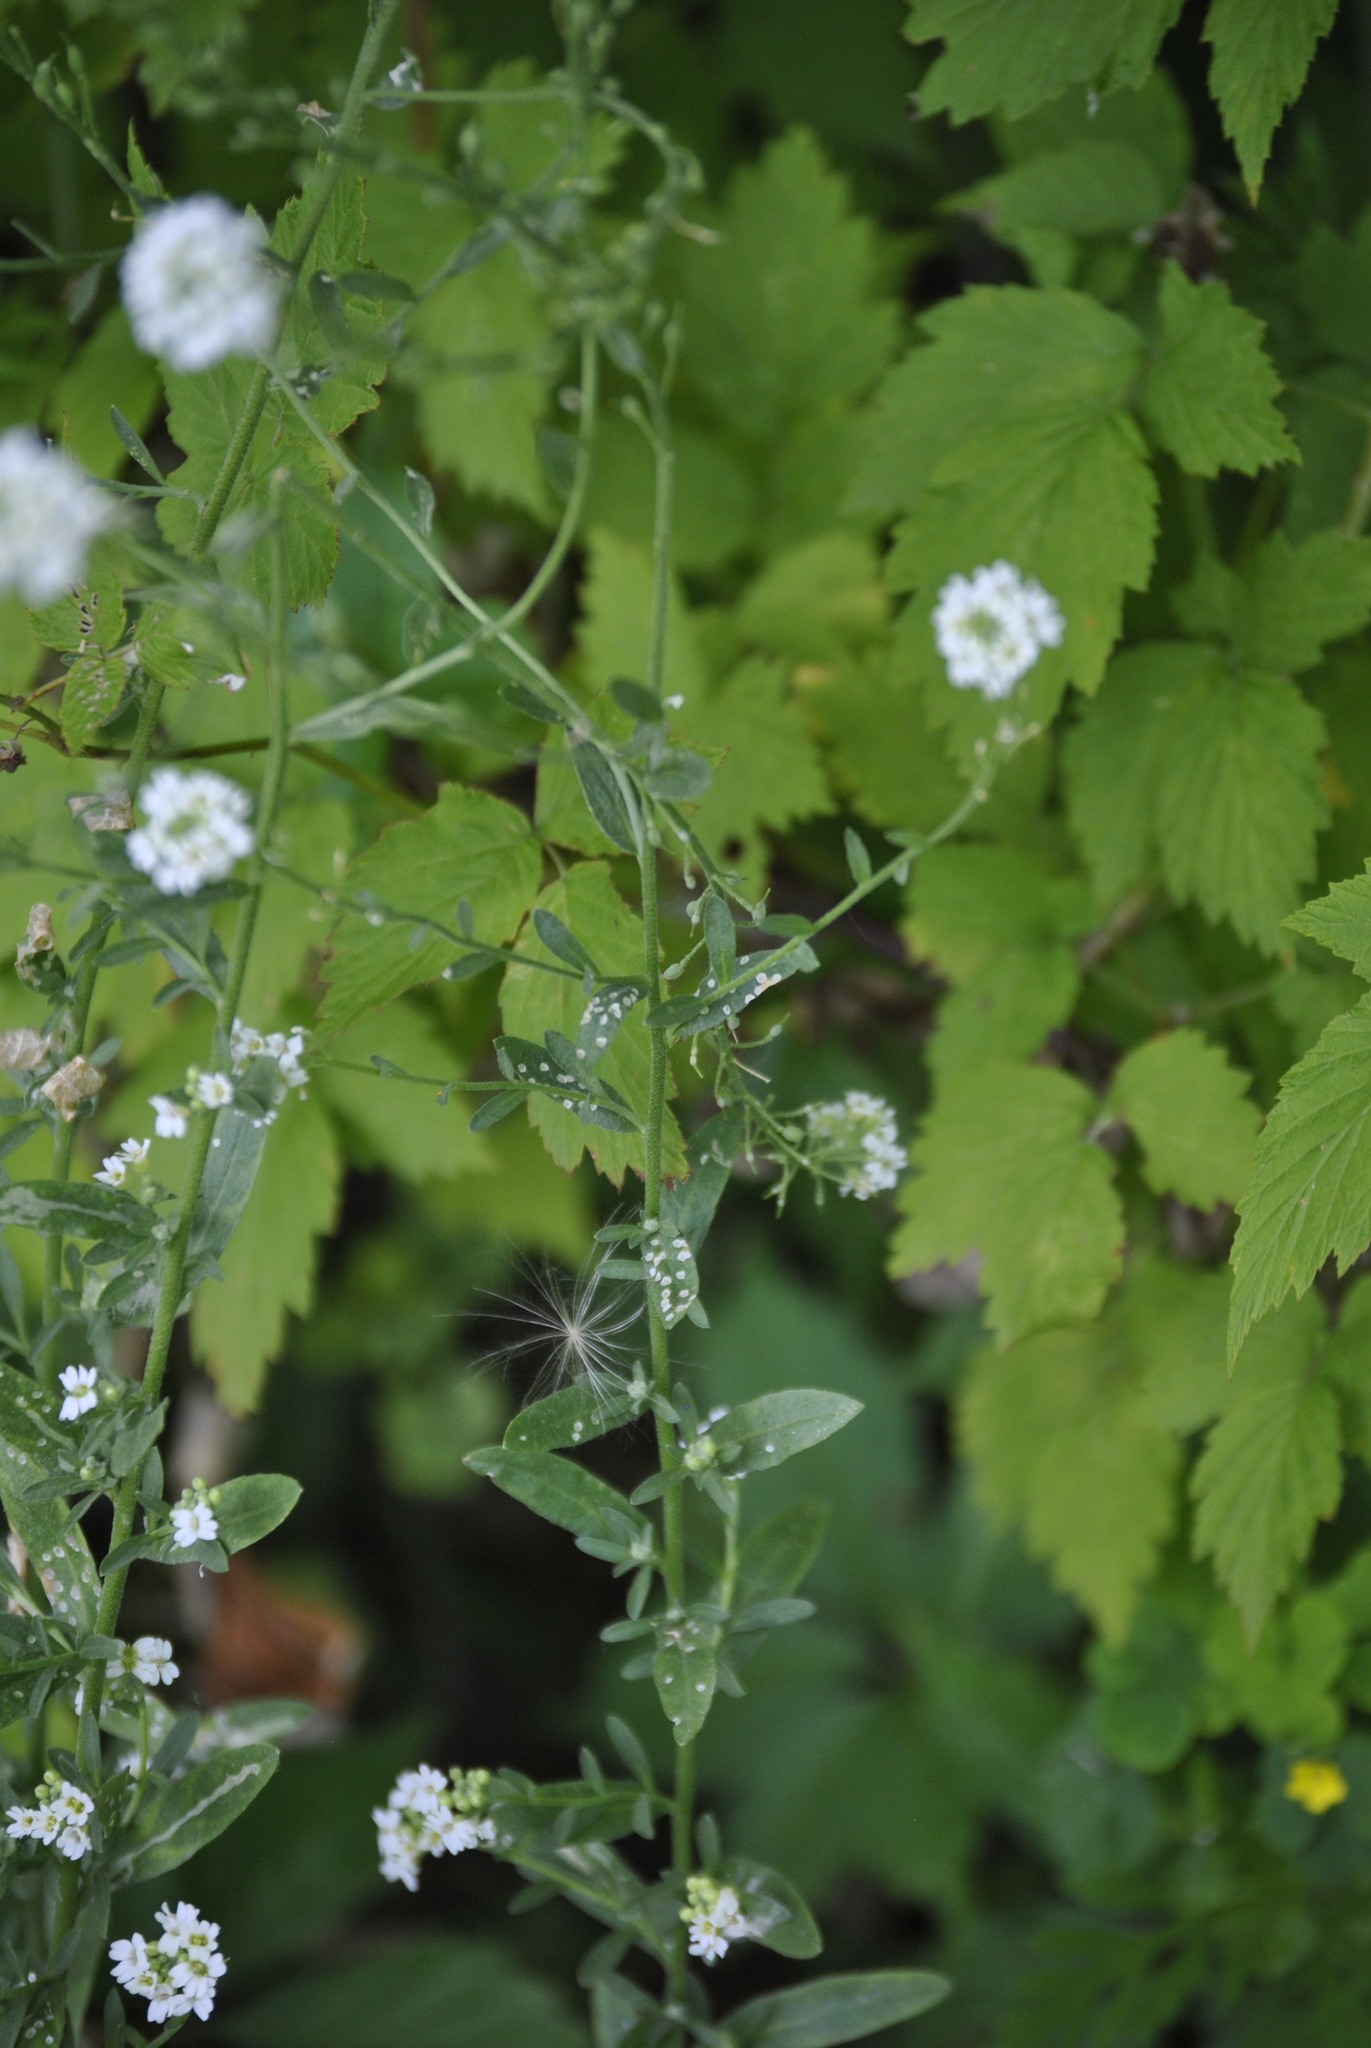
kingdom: Plantae
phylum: Tracheophyta
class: Magnoliopsida
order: Brassicales
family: Brassicaceae
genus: Berteroa
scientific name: Berteroa incana
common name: Hoary alison
